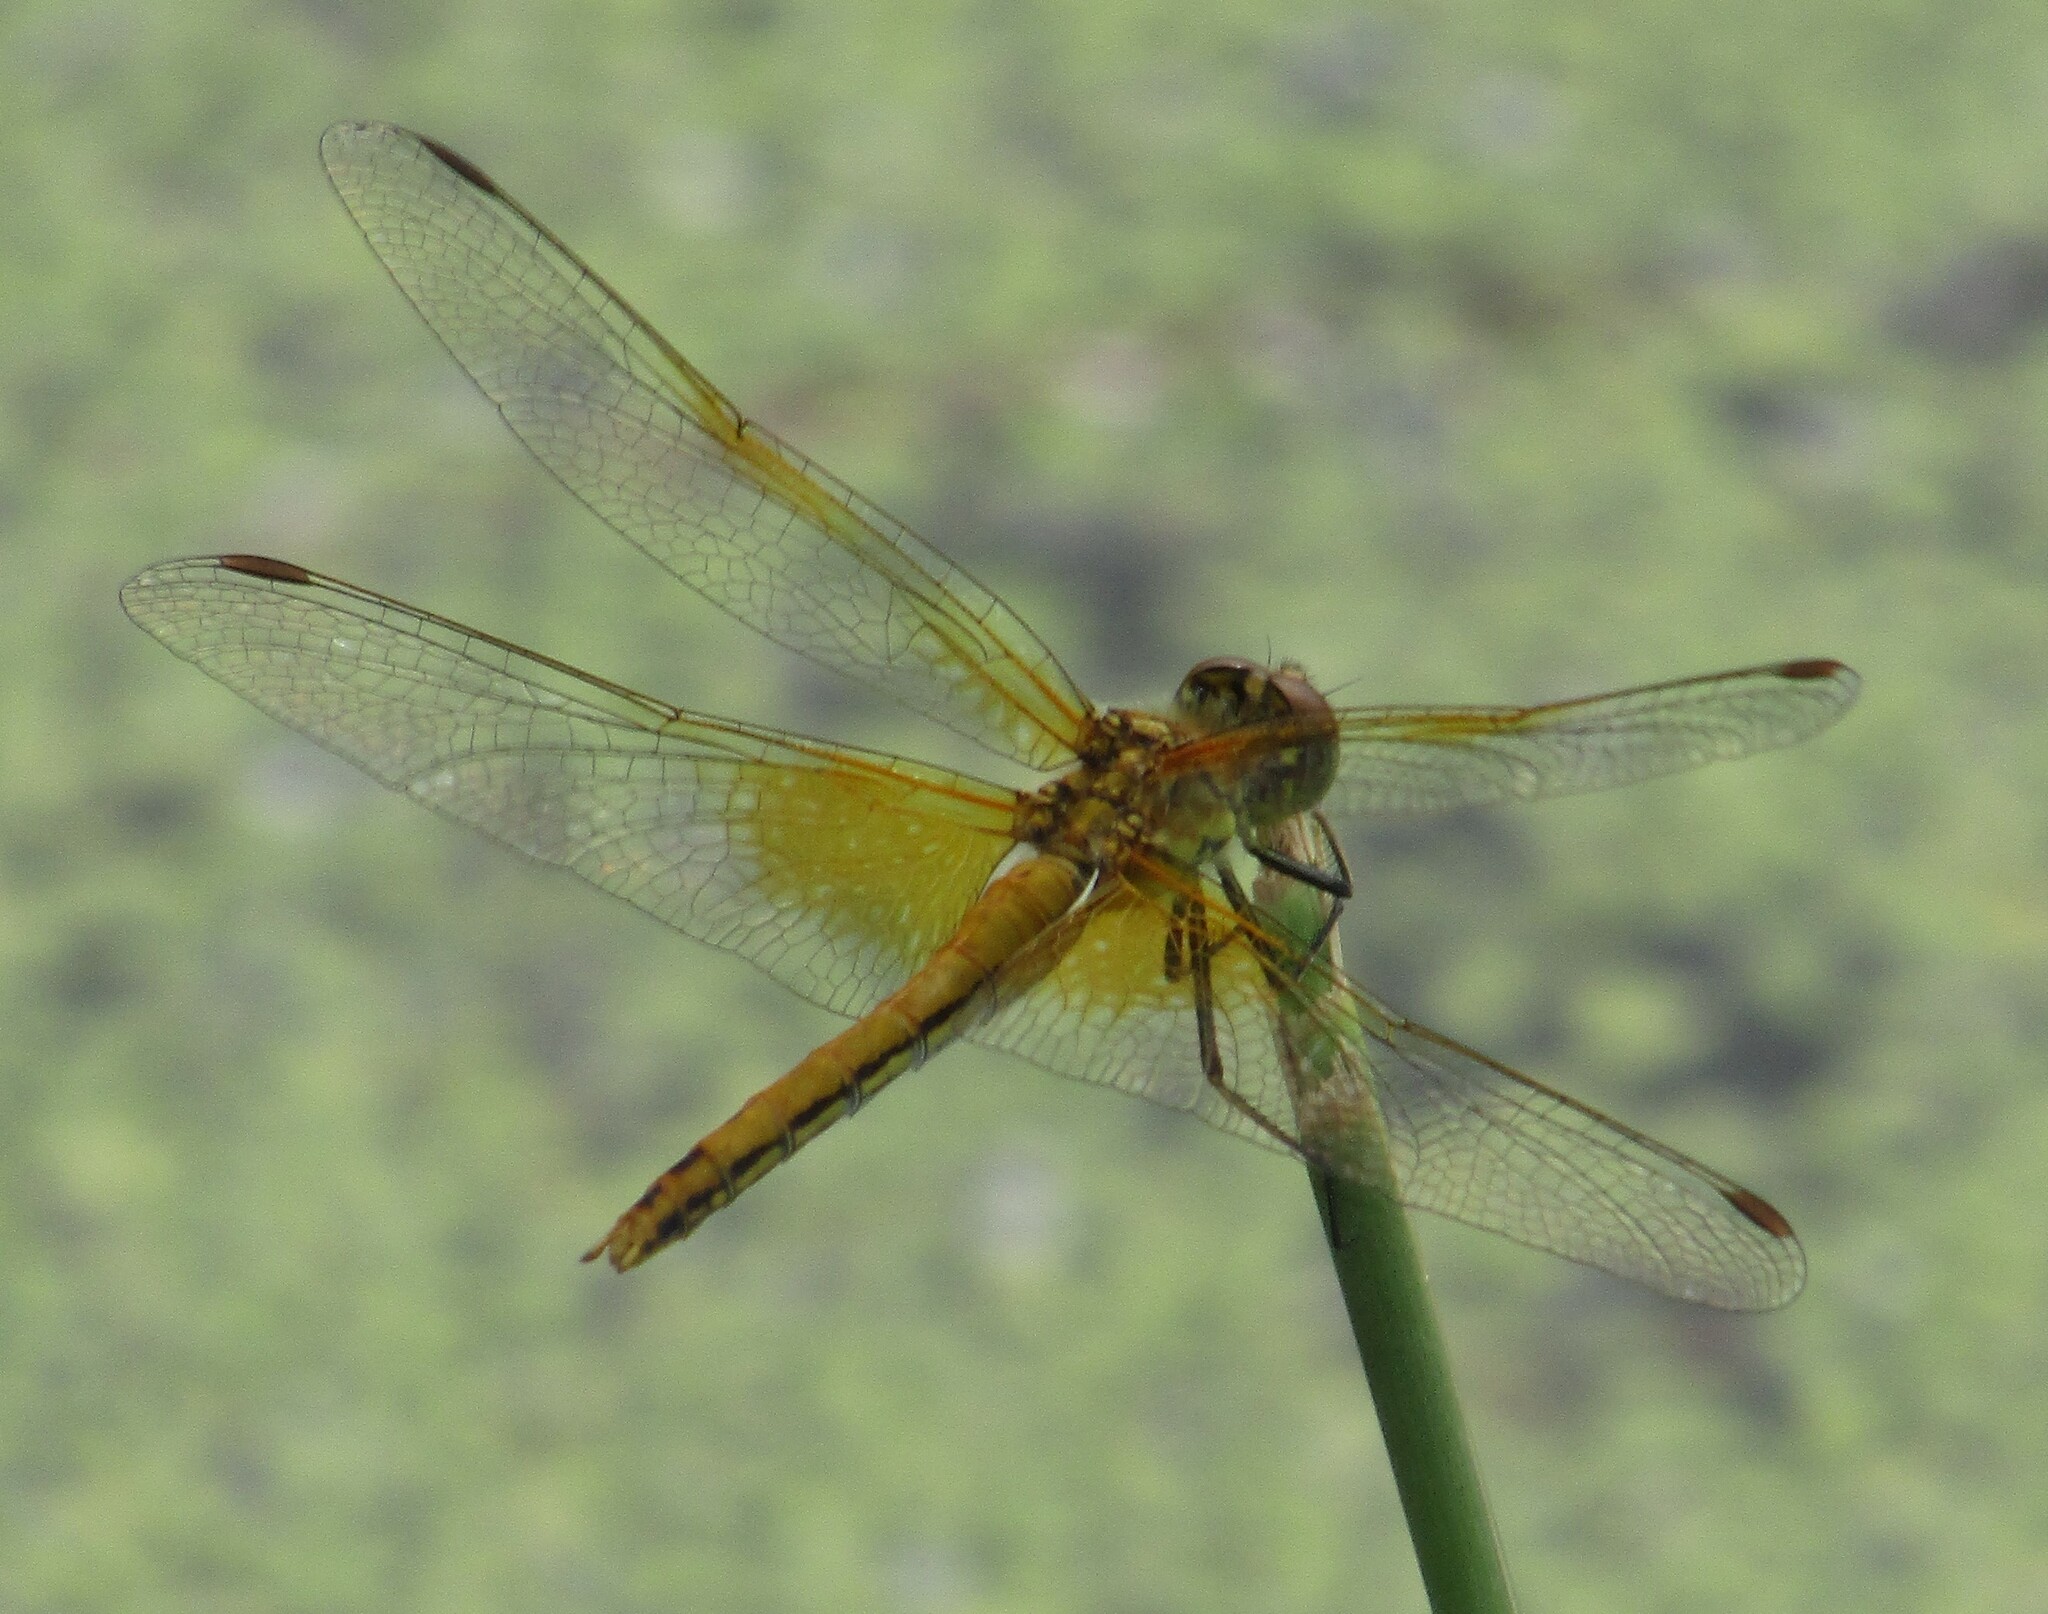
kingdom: Animalia
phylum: Arthropoda
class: Insecta
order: Odonata
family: Libellulidae
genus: Sympetrum
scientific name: Sympetrum flaveolum
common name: Yellow-winged darter
